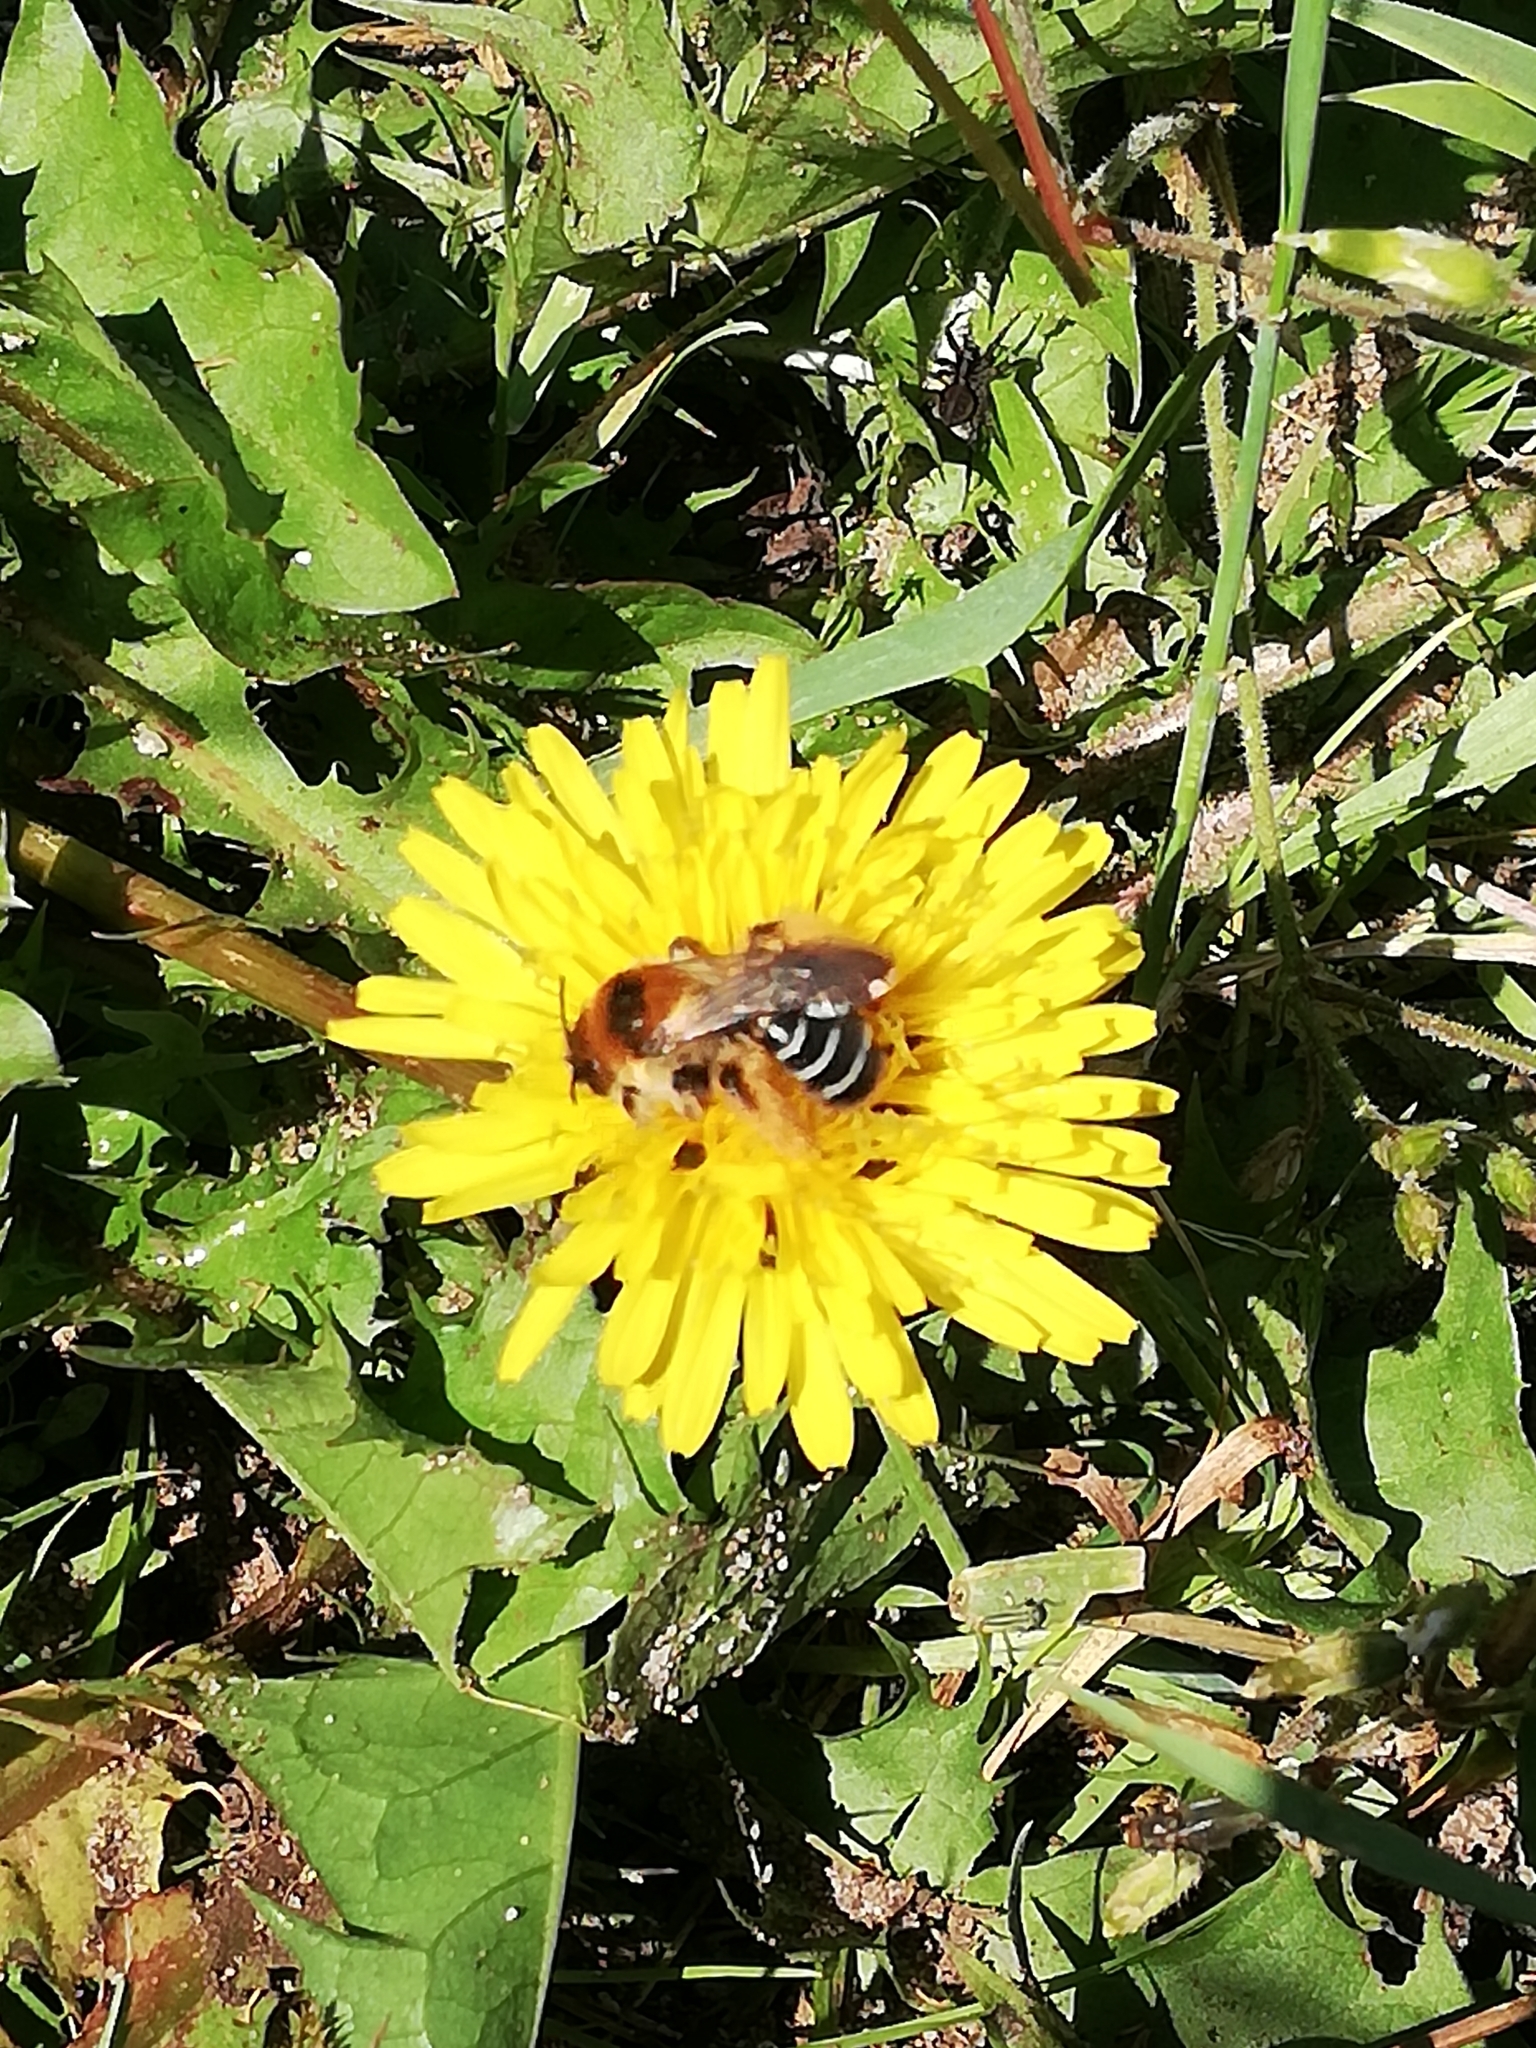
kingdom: Animalia
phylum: Arthropoda
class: Insecta
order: Hymenoptera
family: Melittidae
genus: Dasypoda
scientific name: Dasypoda hirtipes
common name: Pantaloon bee
